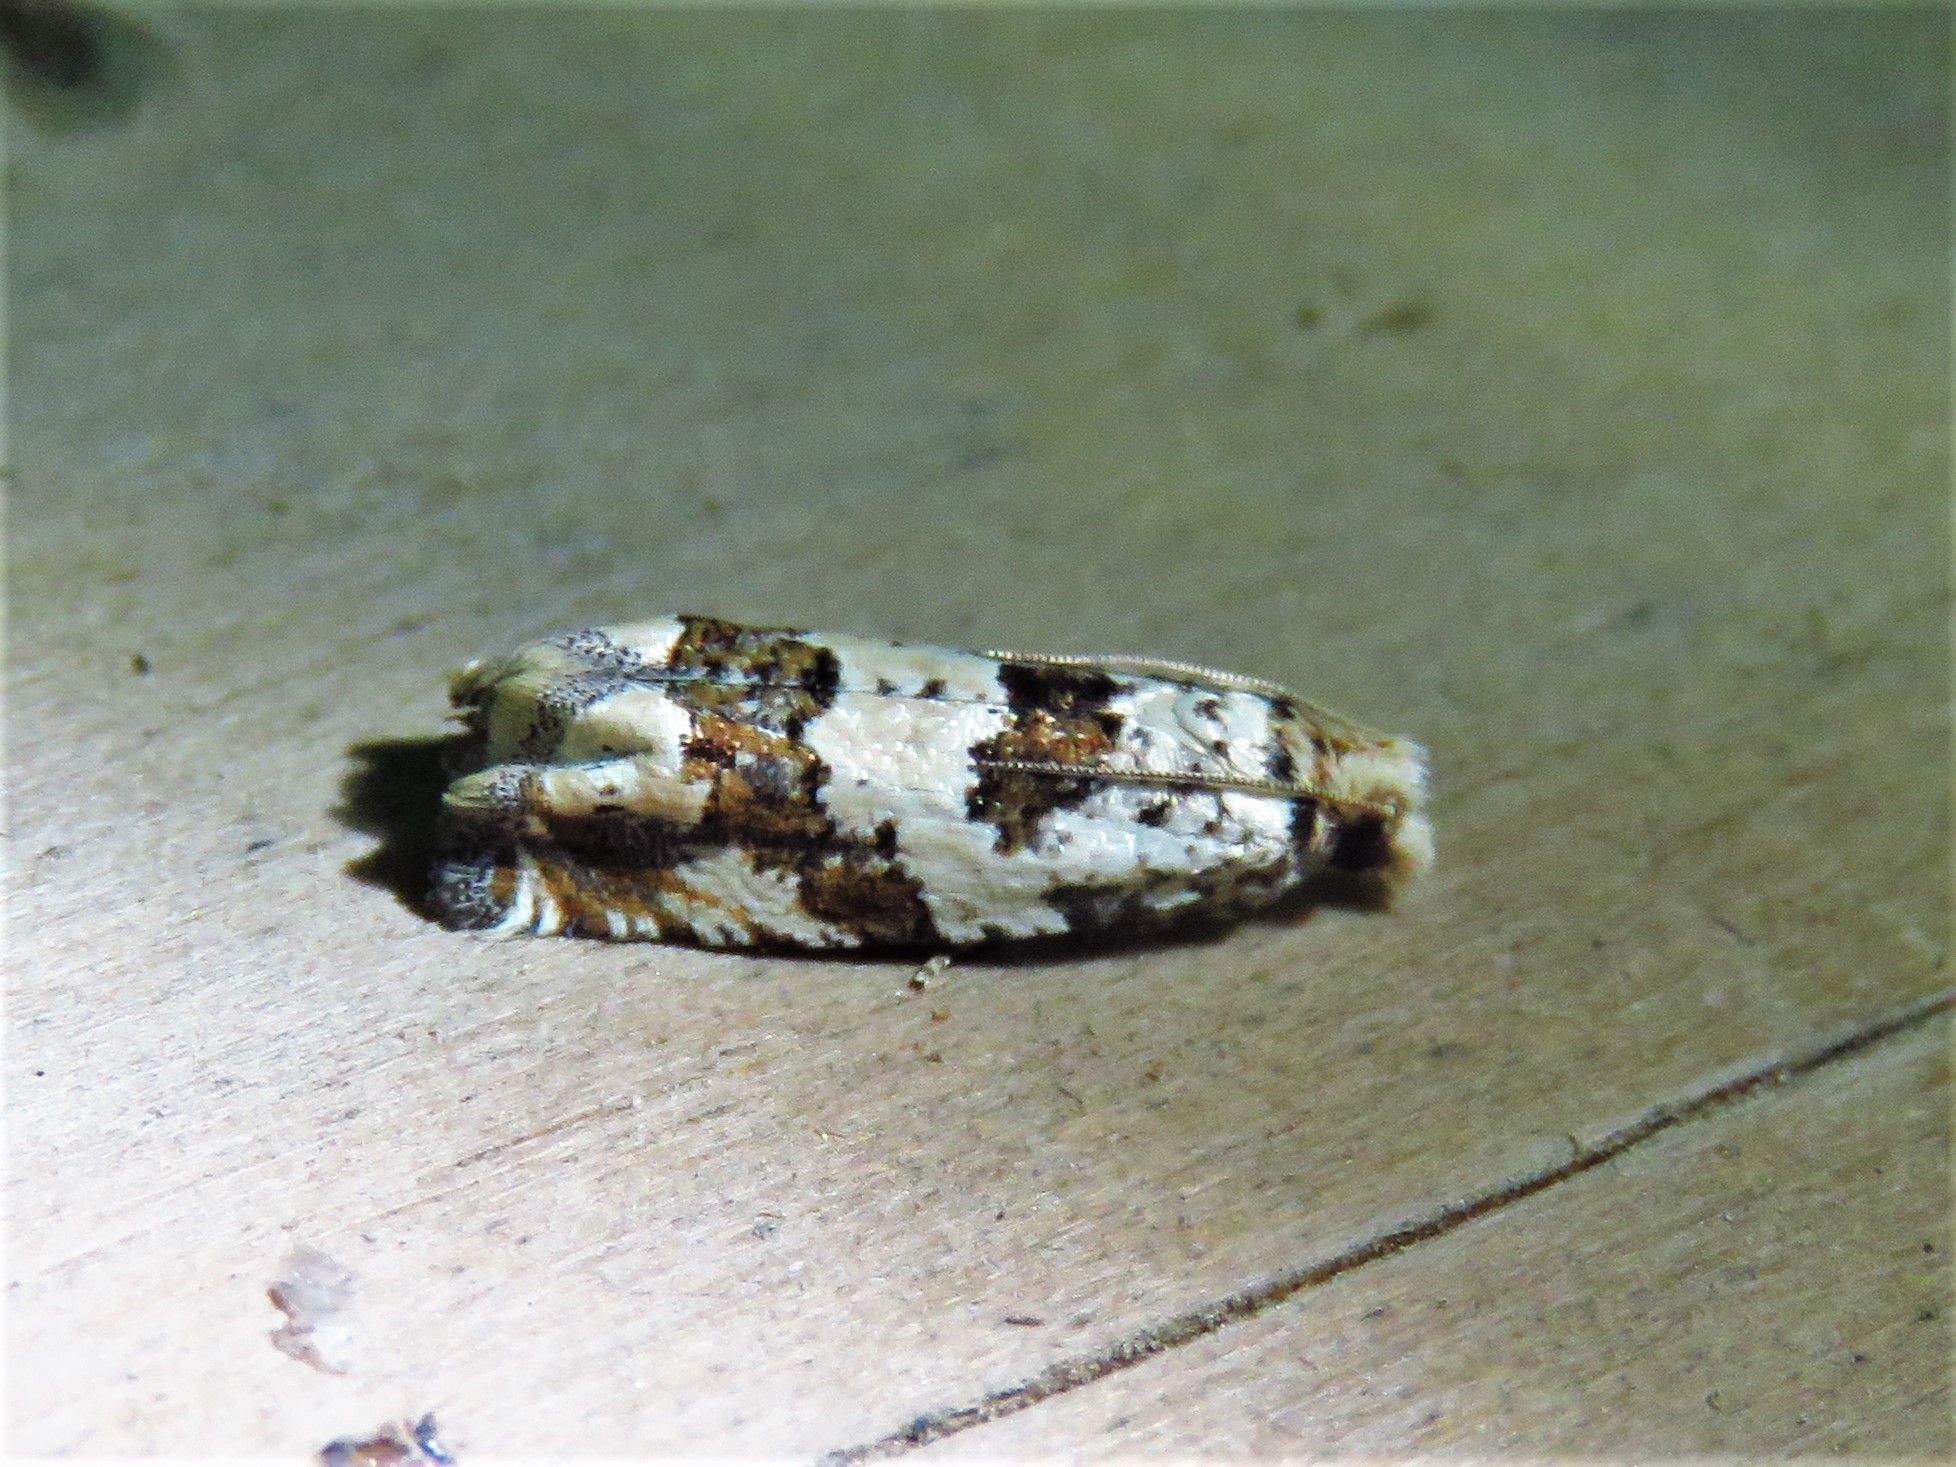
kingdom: Animalia
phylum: Arthropoda
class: Insecta
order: Lepidoptera
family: Tortricidae
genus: Pelochrista
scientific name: Pelochrista matutina
